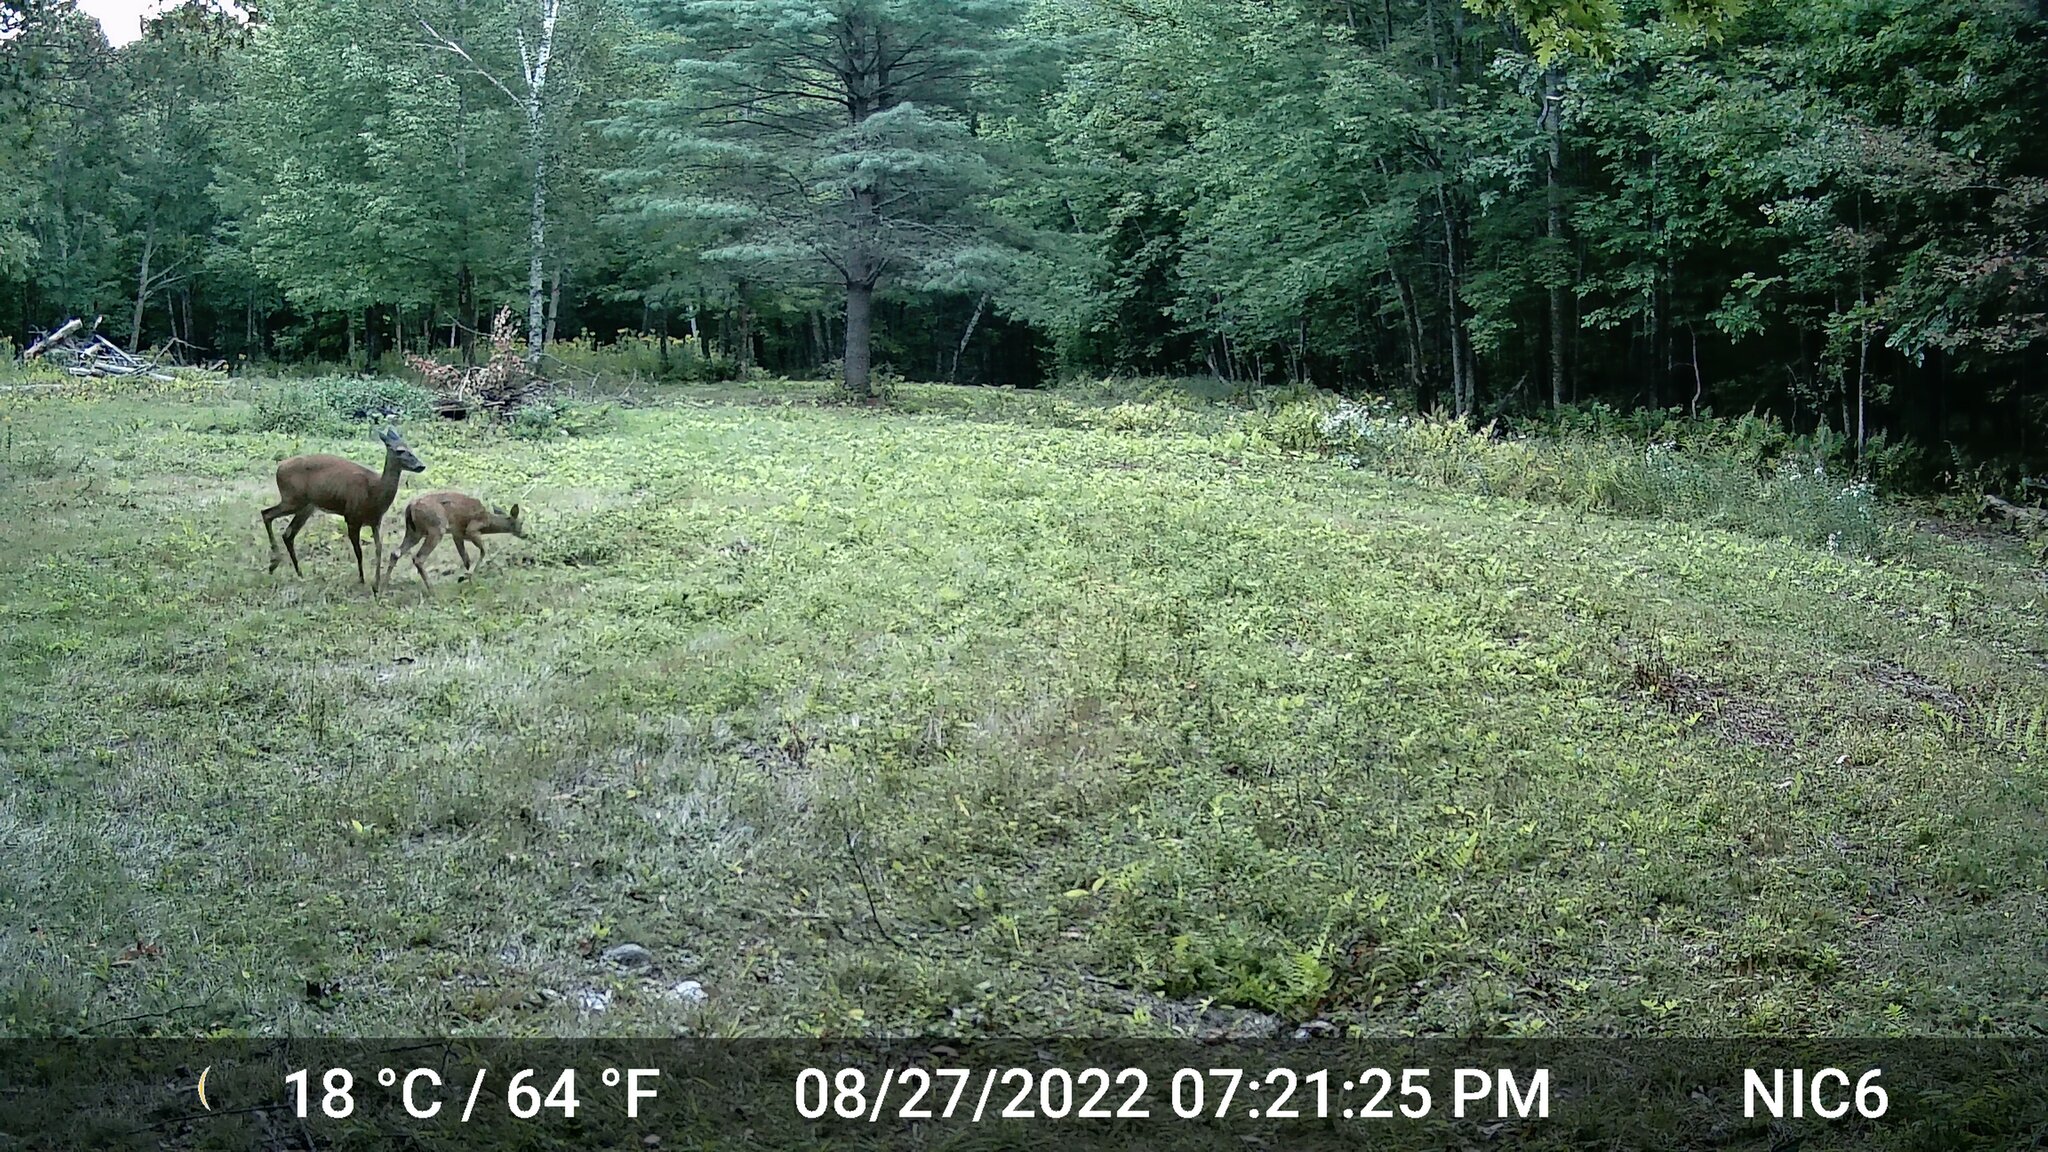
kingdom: Animalia
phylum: Chordata
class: Mammalia
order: Artiodactyla
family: Cervidae
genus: Odocoileus
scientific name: Odocoileus virginianus
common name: White-tailed deer
